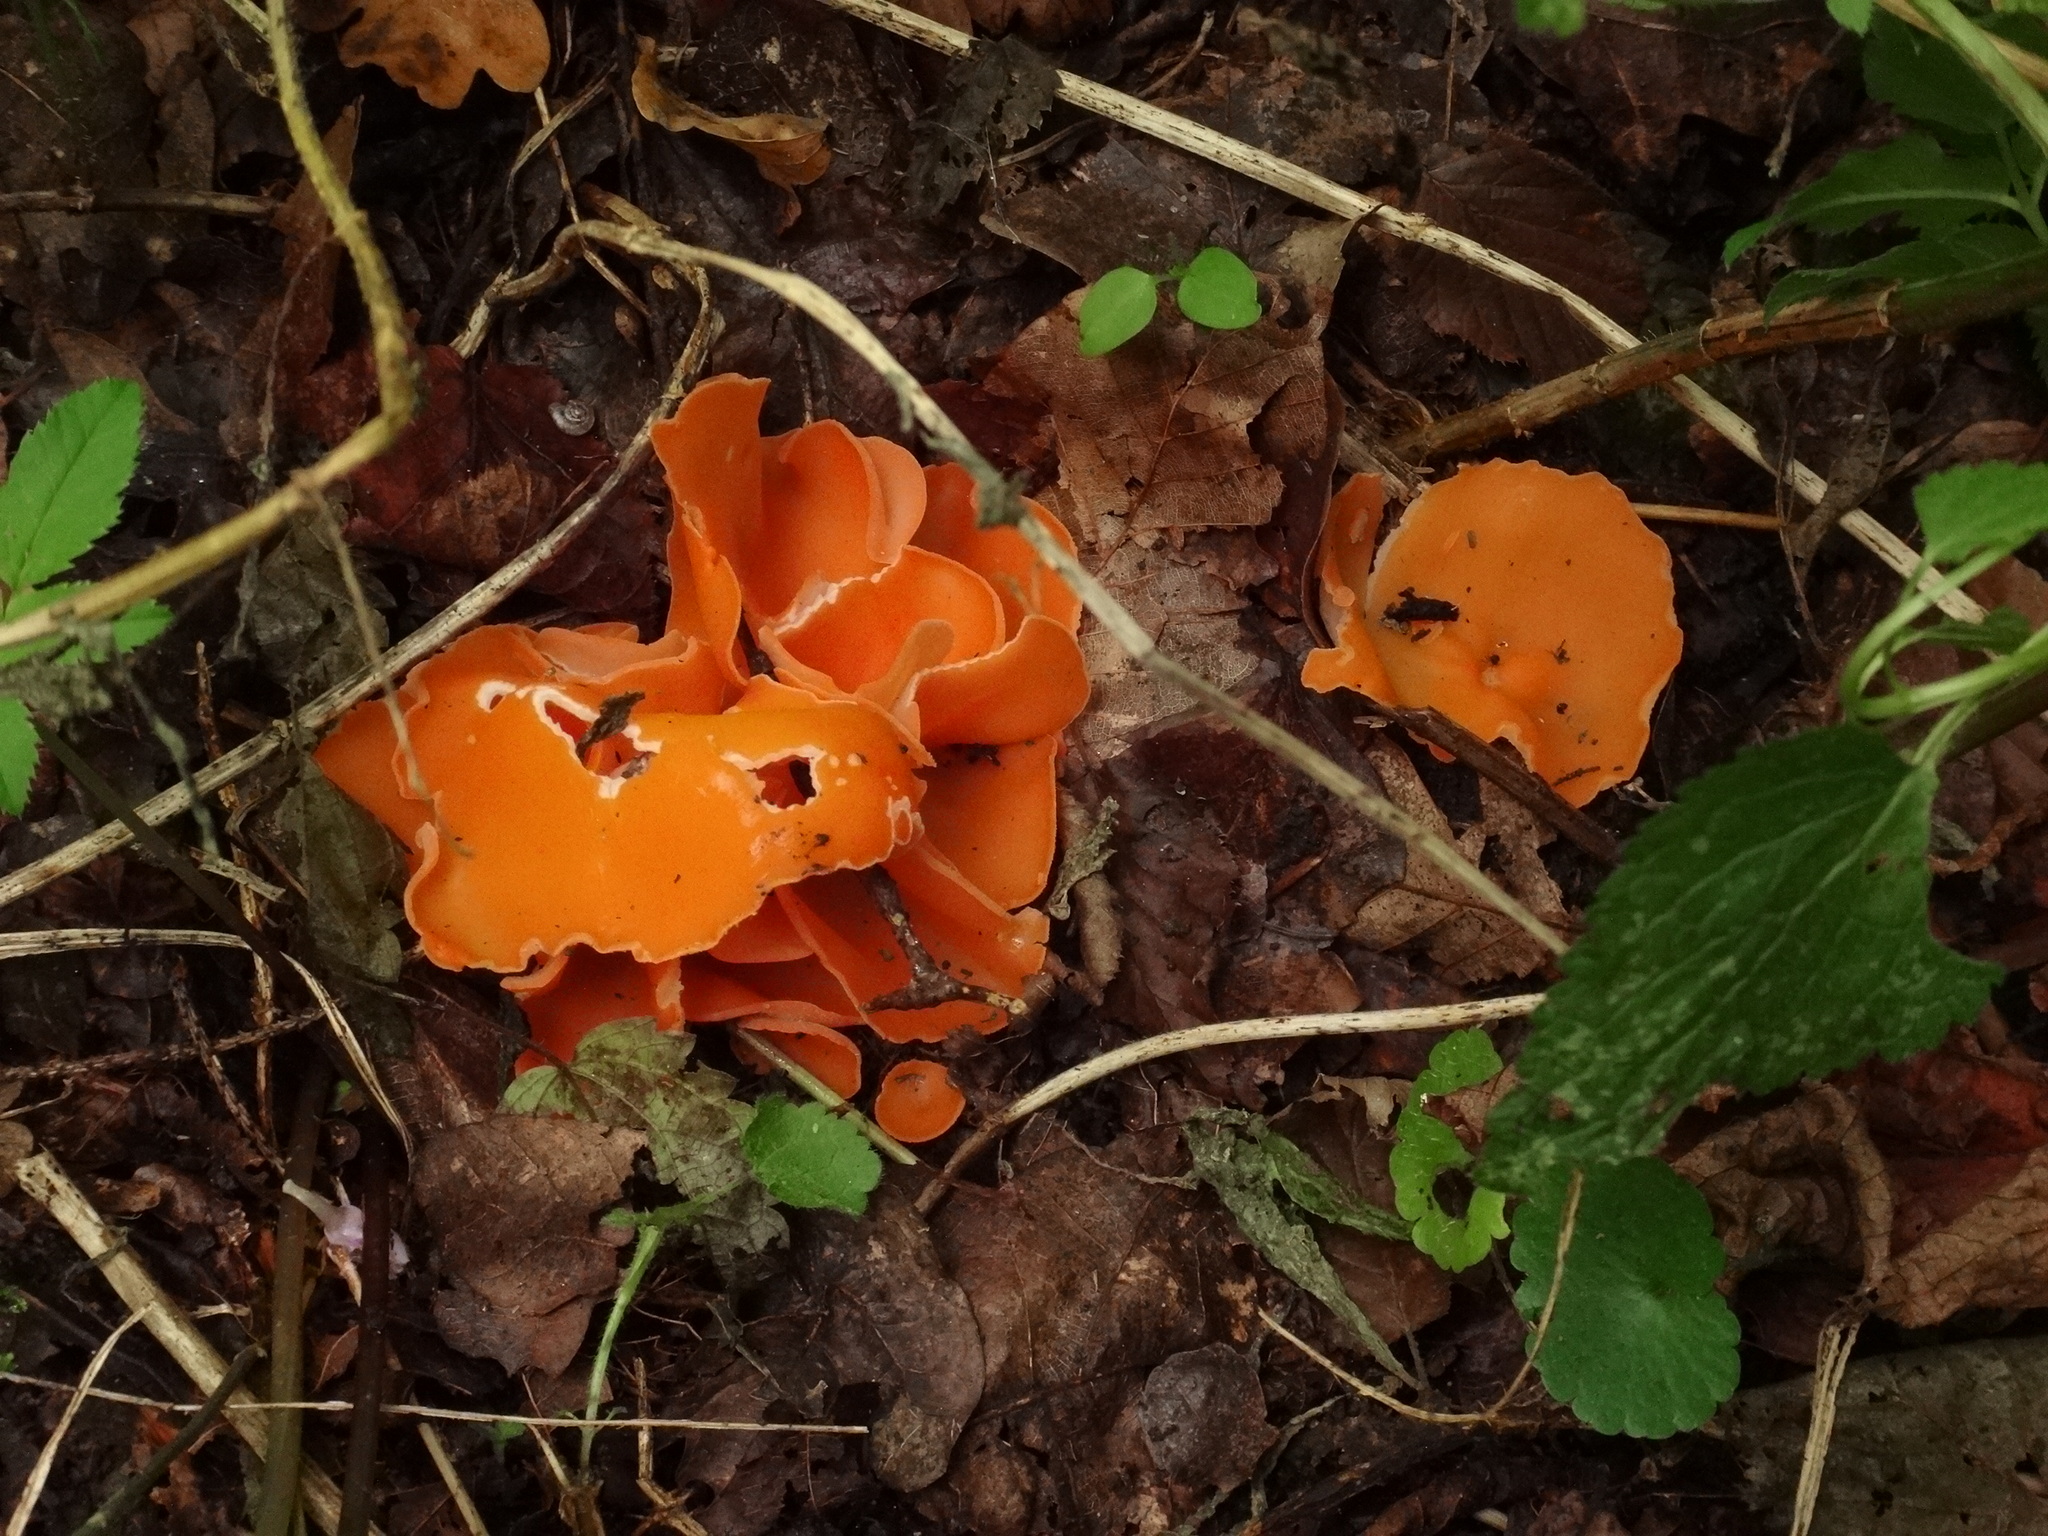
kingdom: Fungi
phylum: Ascomycota
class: Pezizomycetes
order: Pezizales
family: Pyronemataceae
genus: Aleuria
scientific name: Aleuria aurantia
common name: Orange peel fungus
